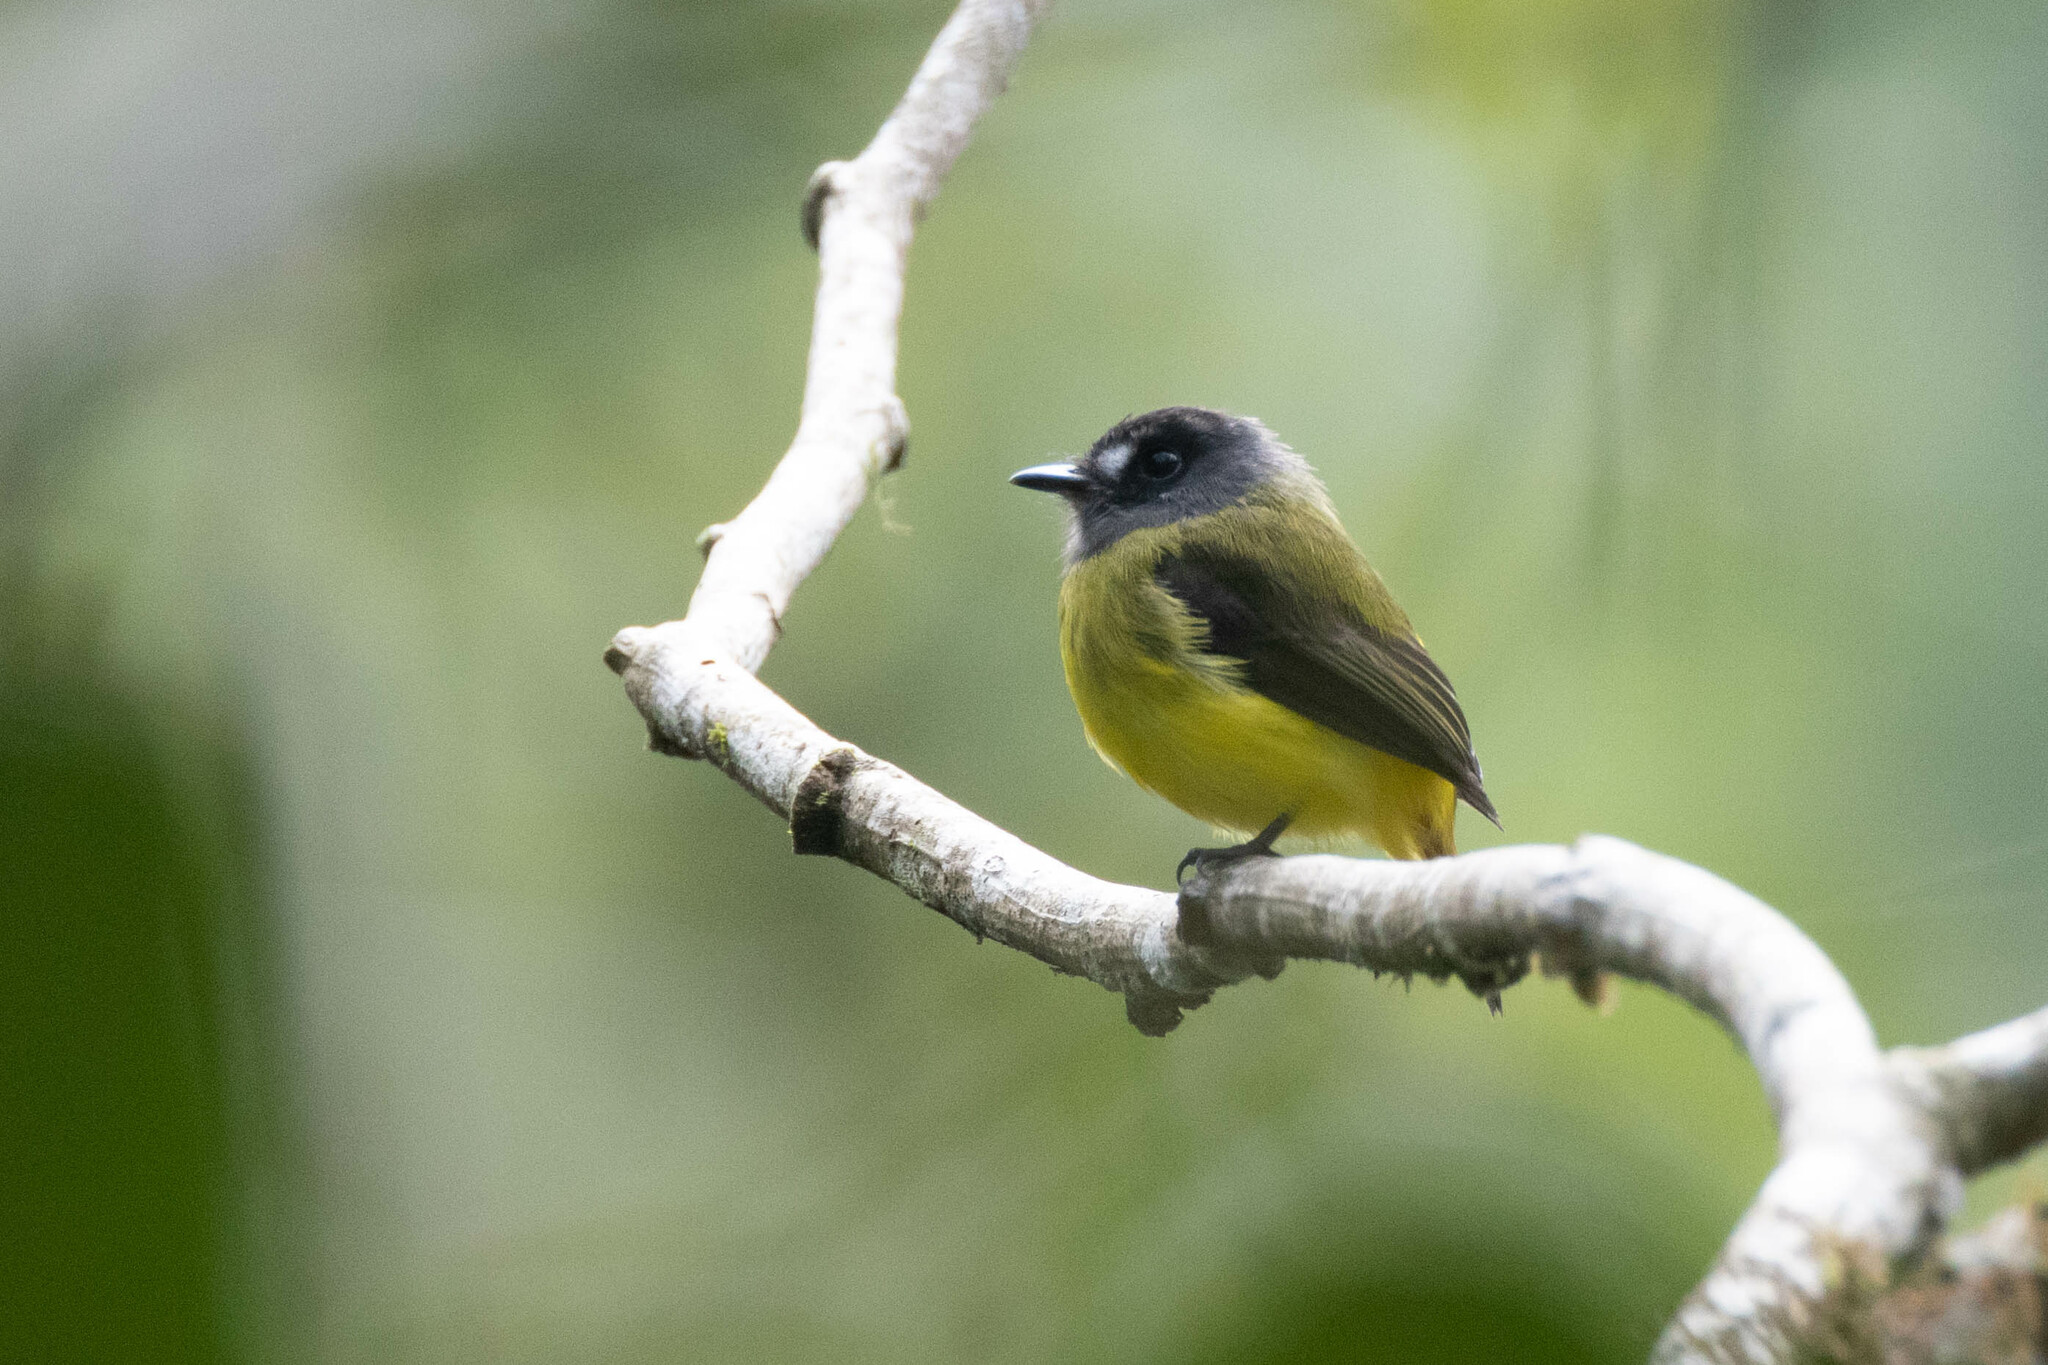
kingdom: Animalia
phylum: Chordata
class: Aves
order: Passeriformes
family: Tyrannidae
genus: Myiotriccus
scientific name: Myiotriccus ornatus
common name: Ornate flycatcher
